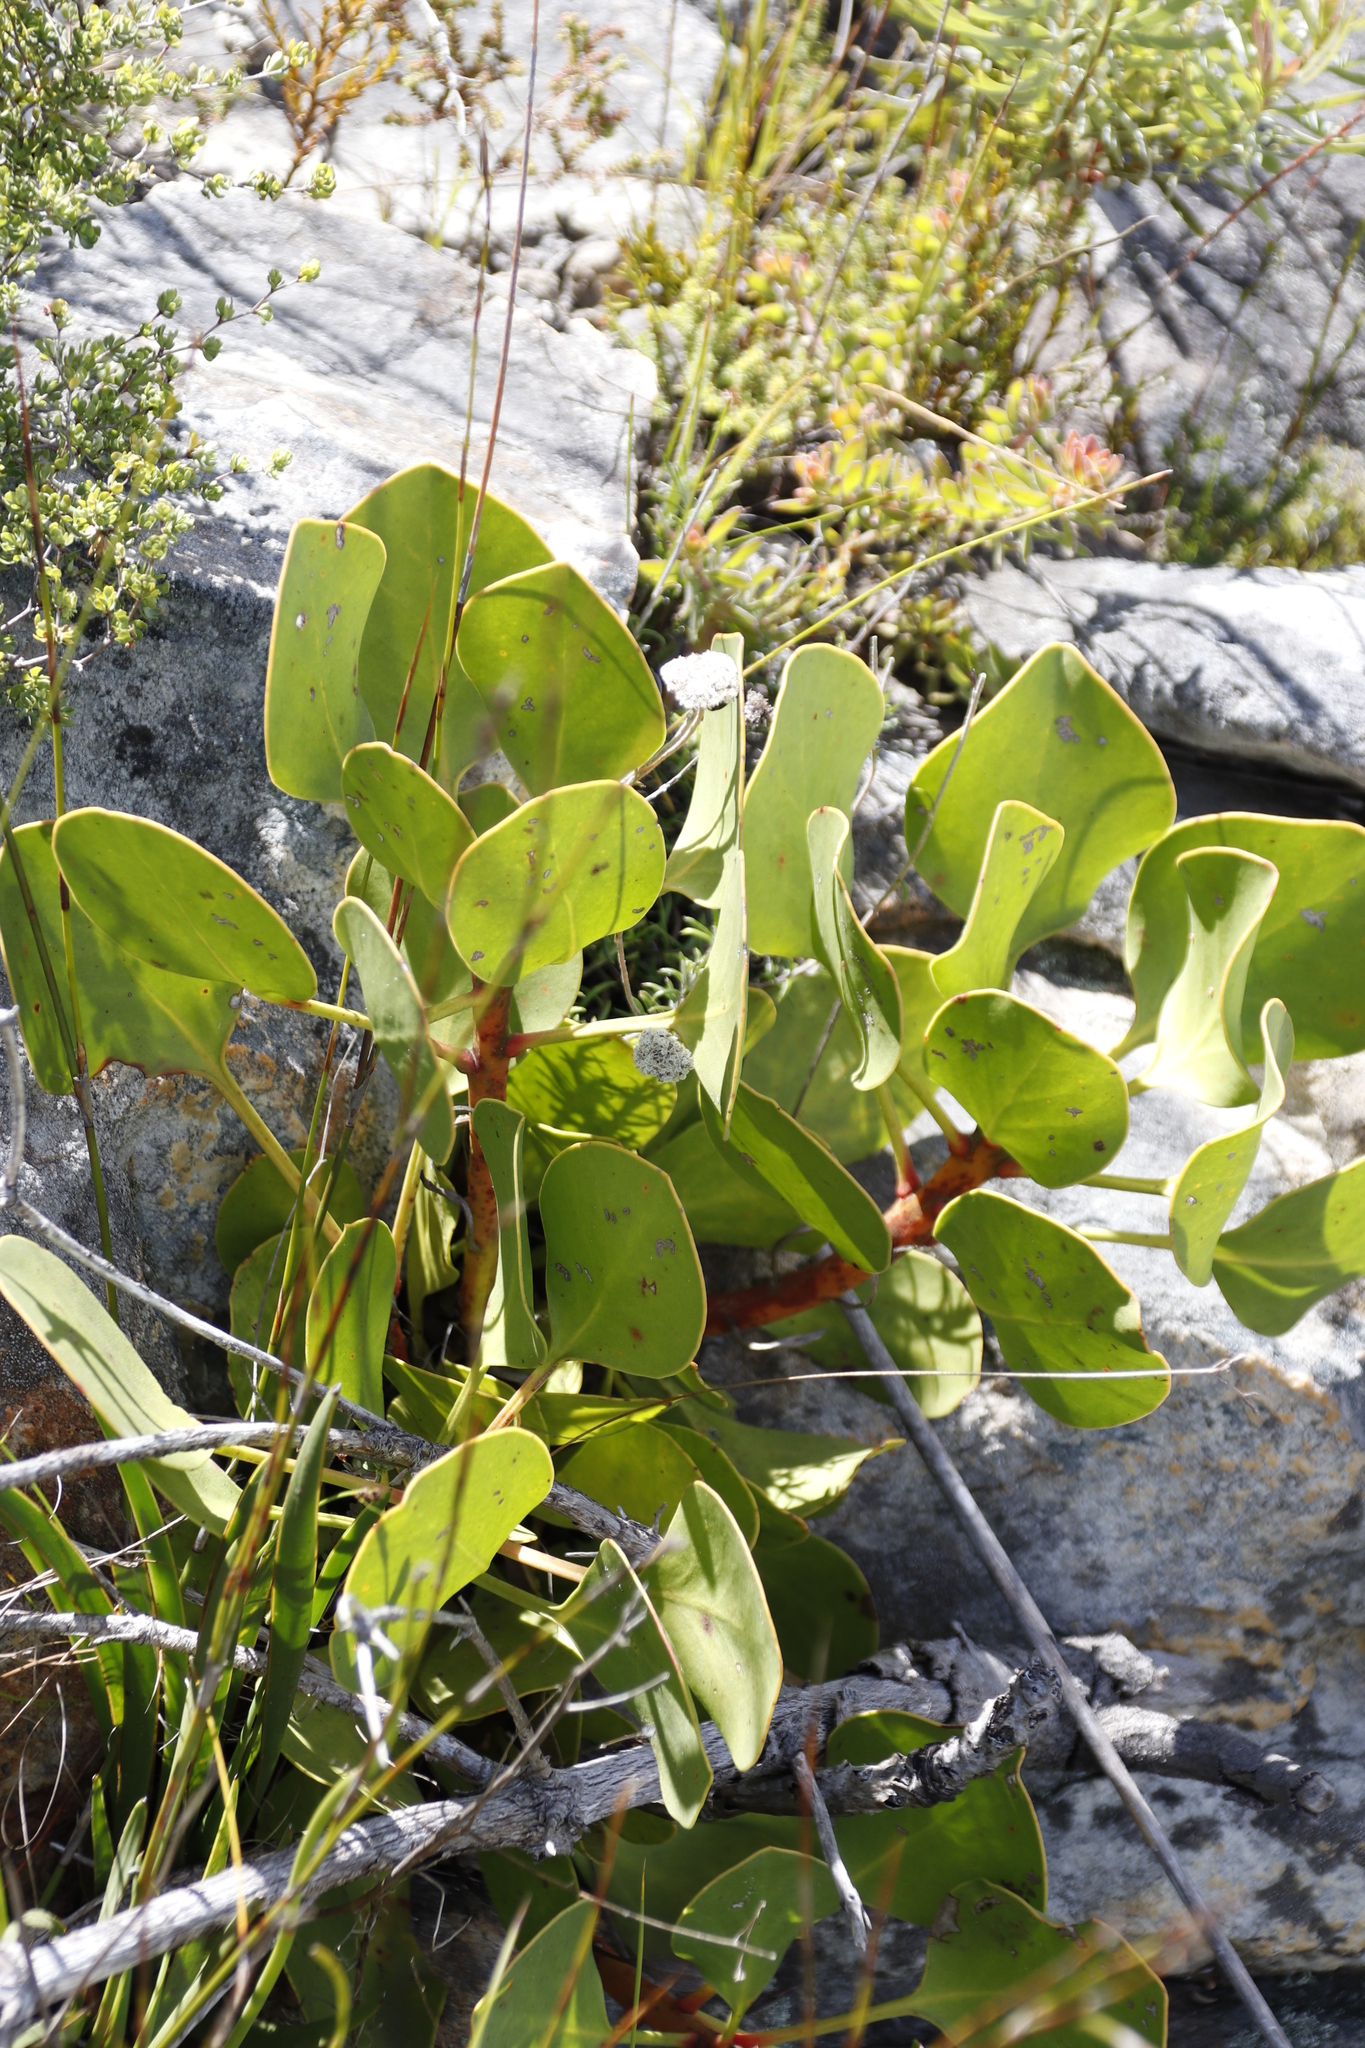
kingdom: Plantae
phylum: Tracheophyta
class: Magnoliopsida
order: Proteales
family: Proteaceae
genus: Protea
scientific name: Protea cynaroides
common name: King protea
